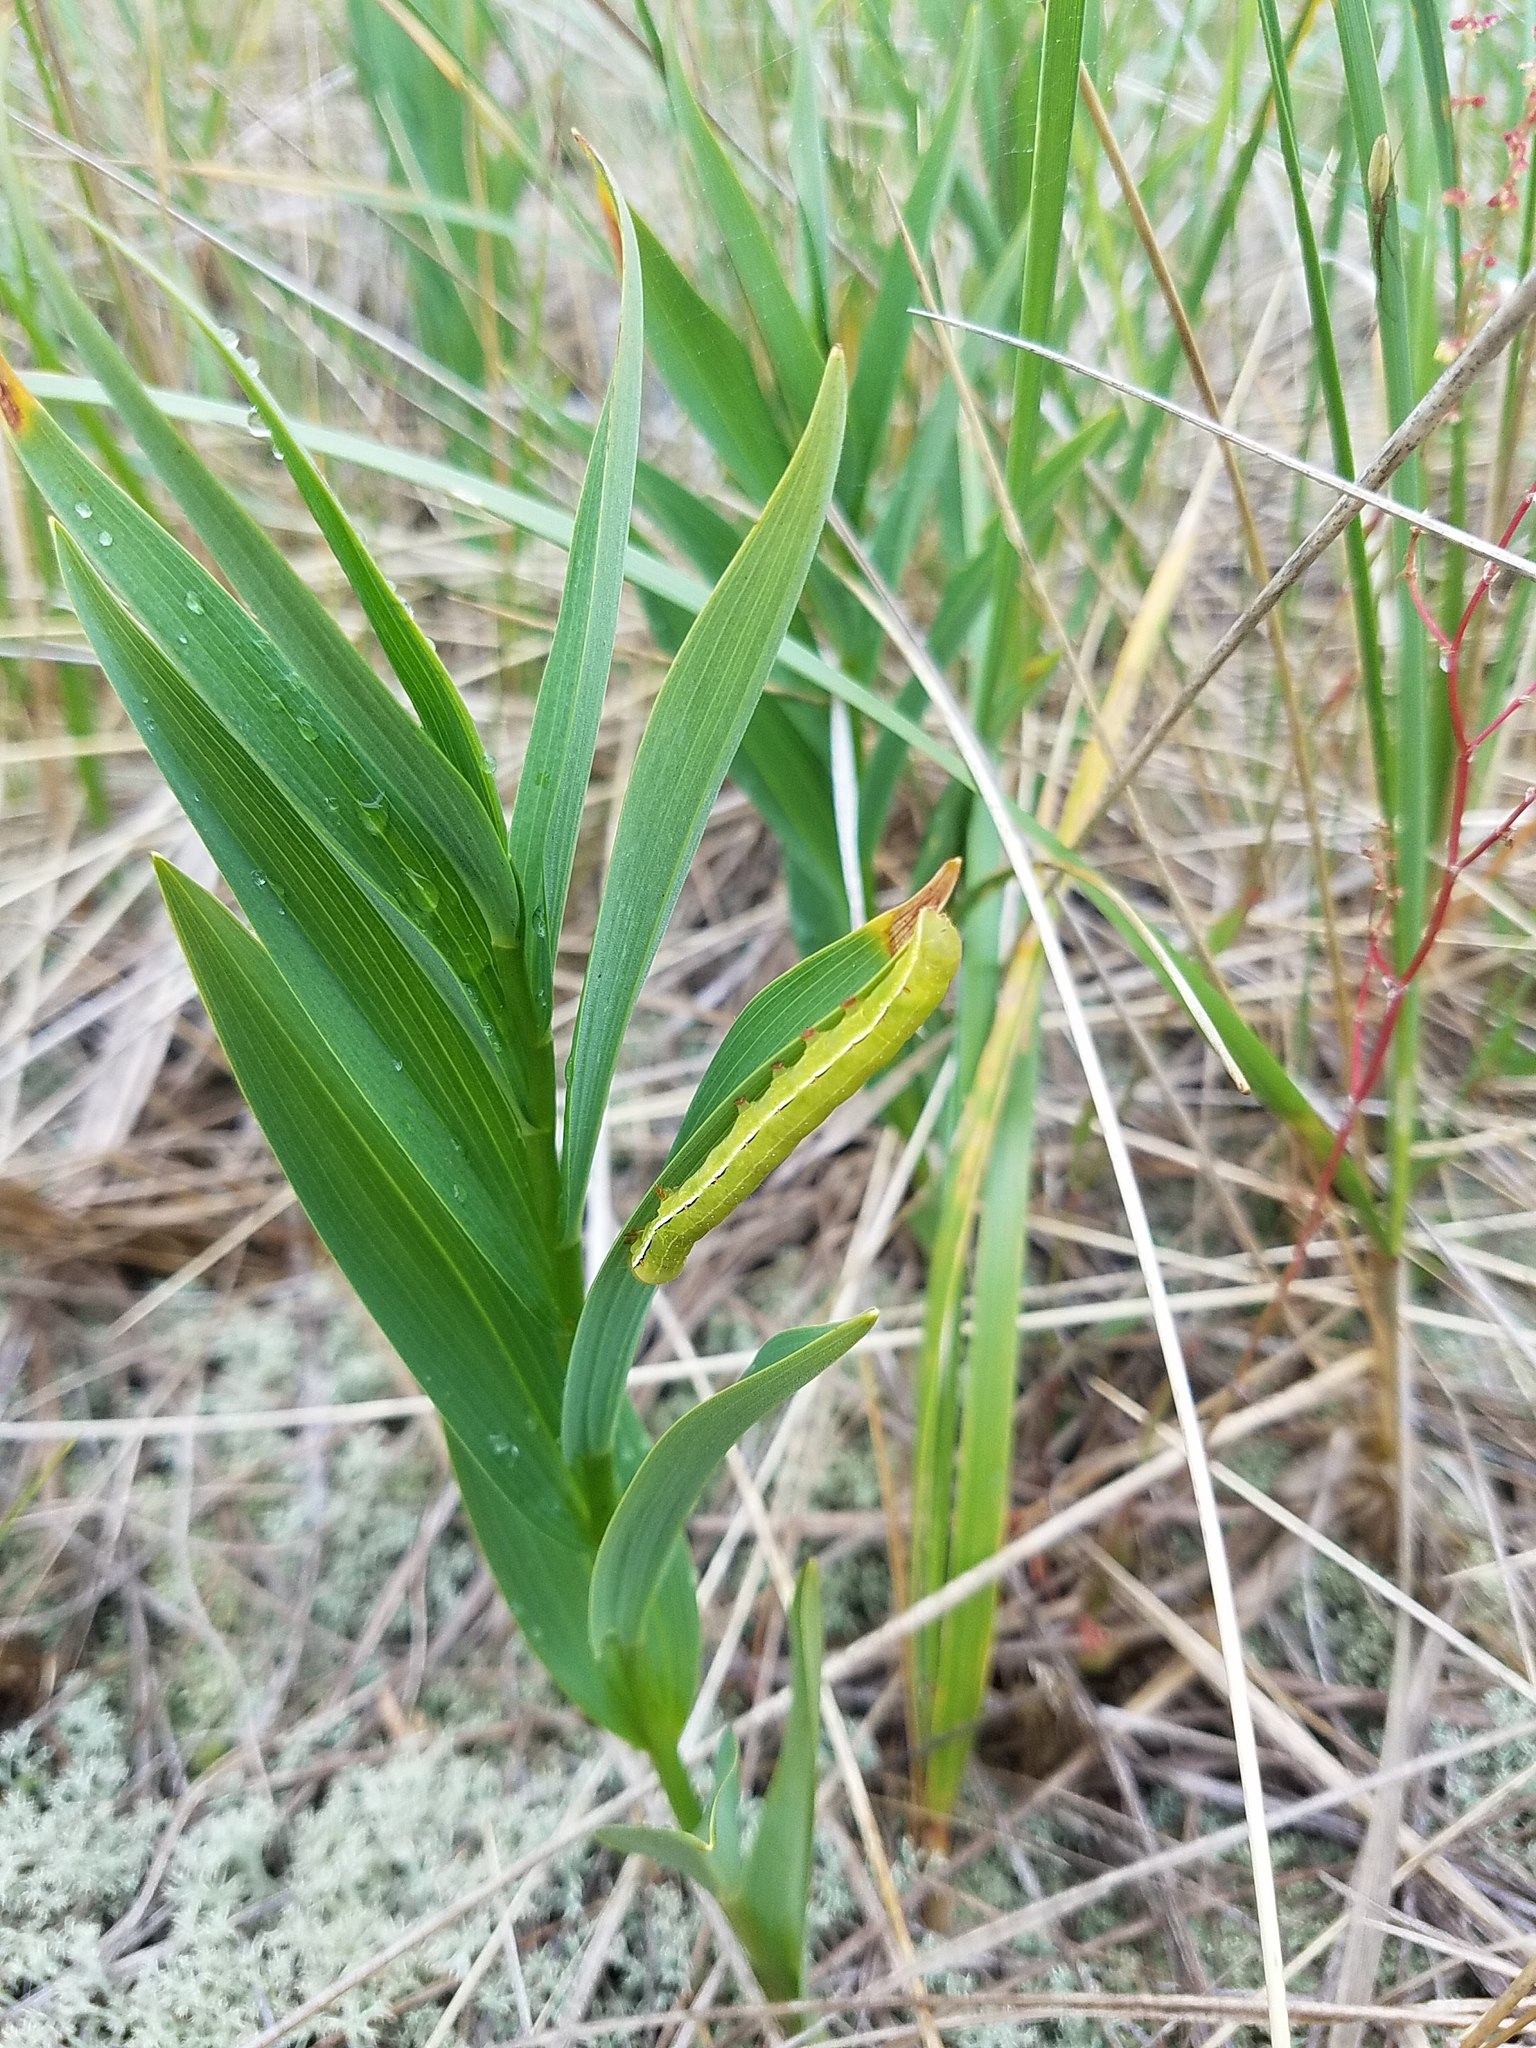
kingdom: Plantae
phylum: Tracheophyta
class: Liliopsida
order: Asparagales
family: Asparagaceae
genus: Maianthemum
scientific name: Maianthemum stellatum
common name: Little false solomon's seal
